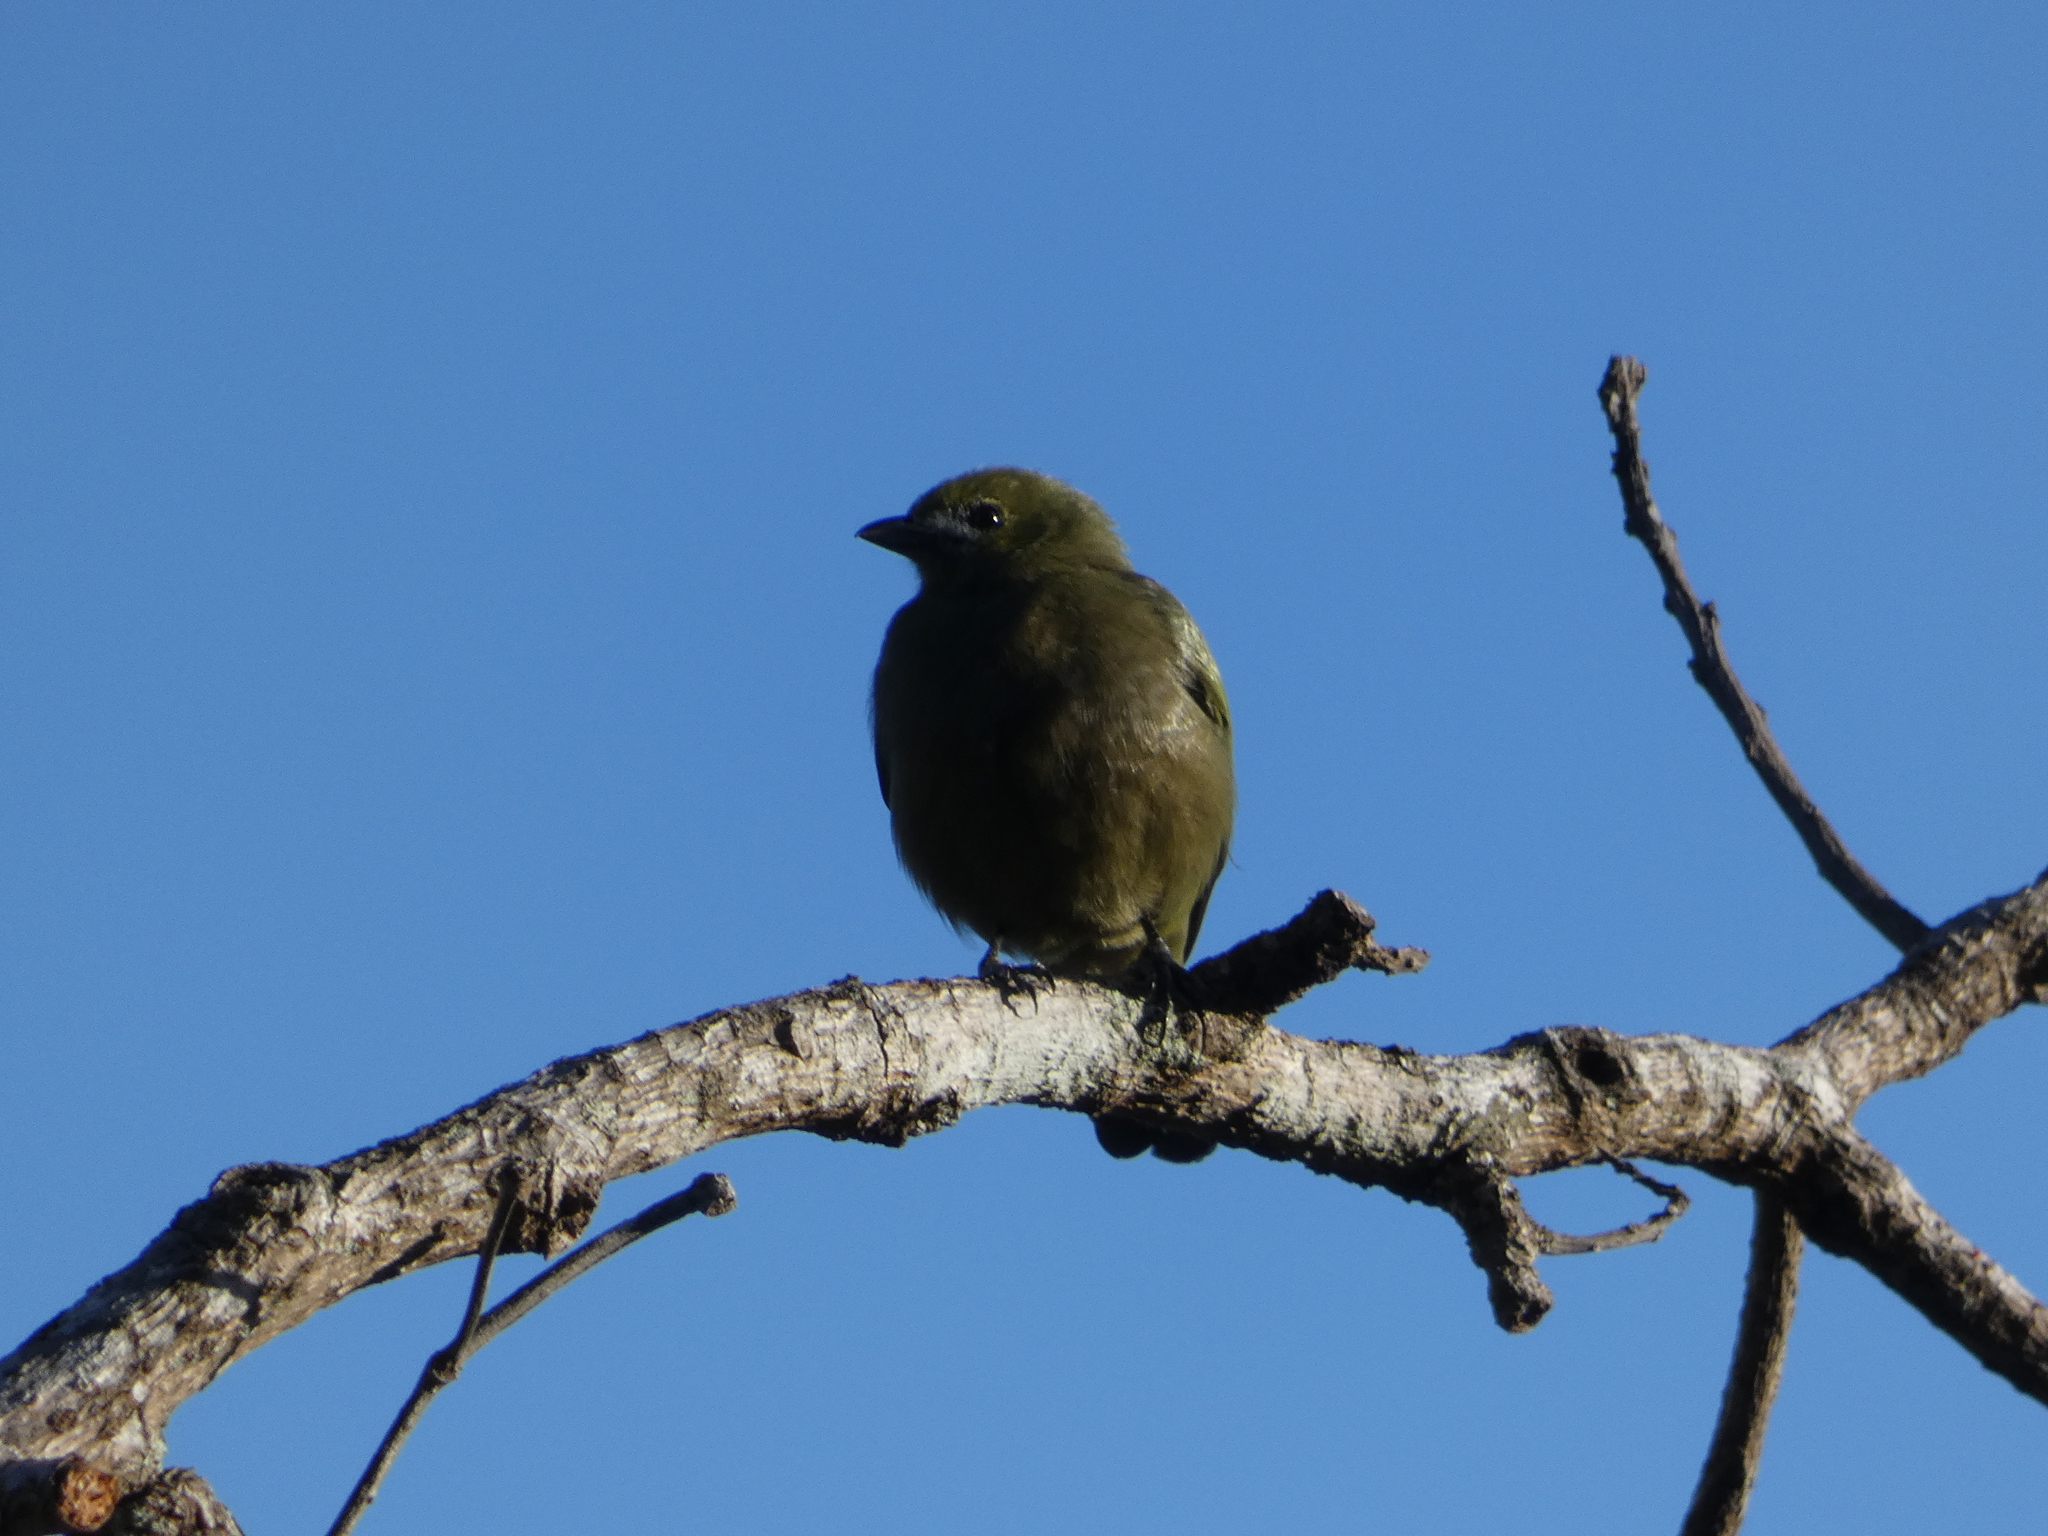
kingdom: Animalia
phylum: Chordata
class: Aves
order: Passeriformes
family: Thraupidae
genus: Thraupis
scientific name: Thraupis palmarum
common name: Palm tanager
